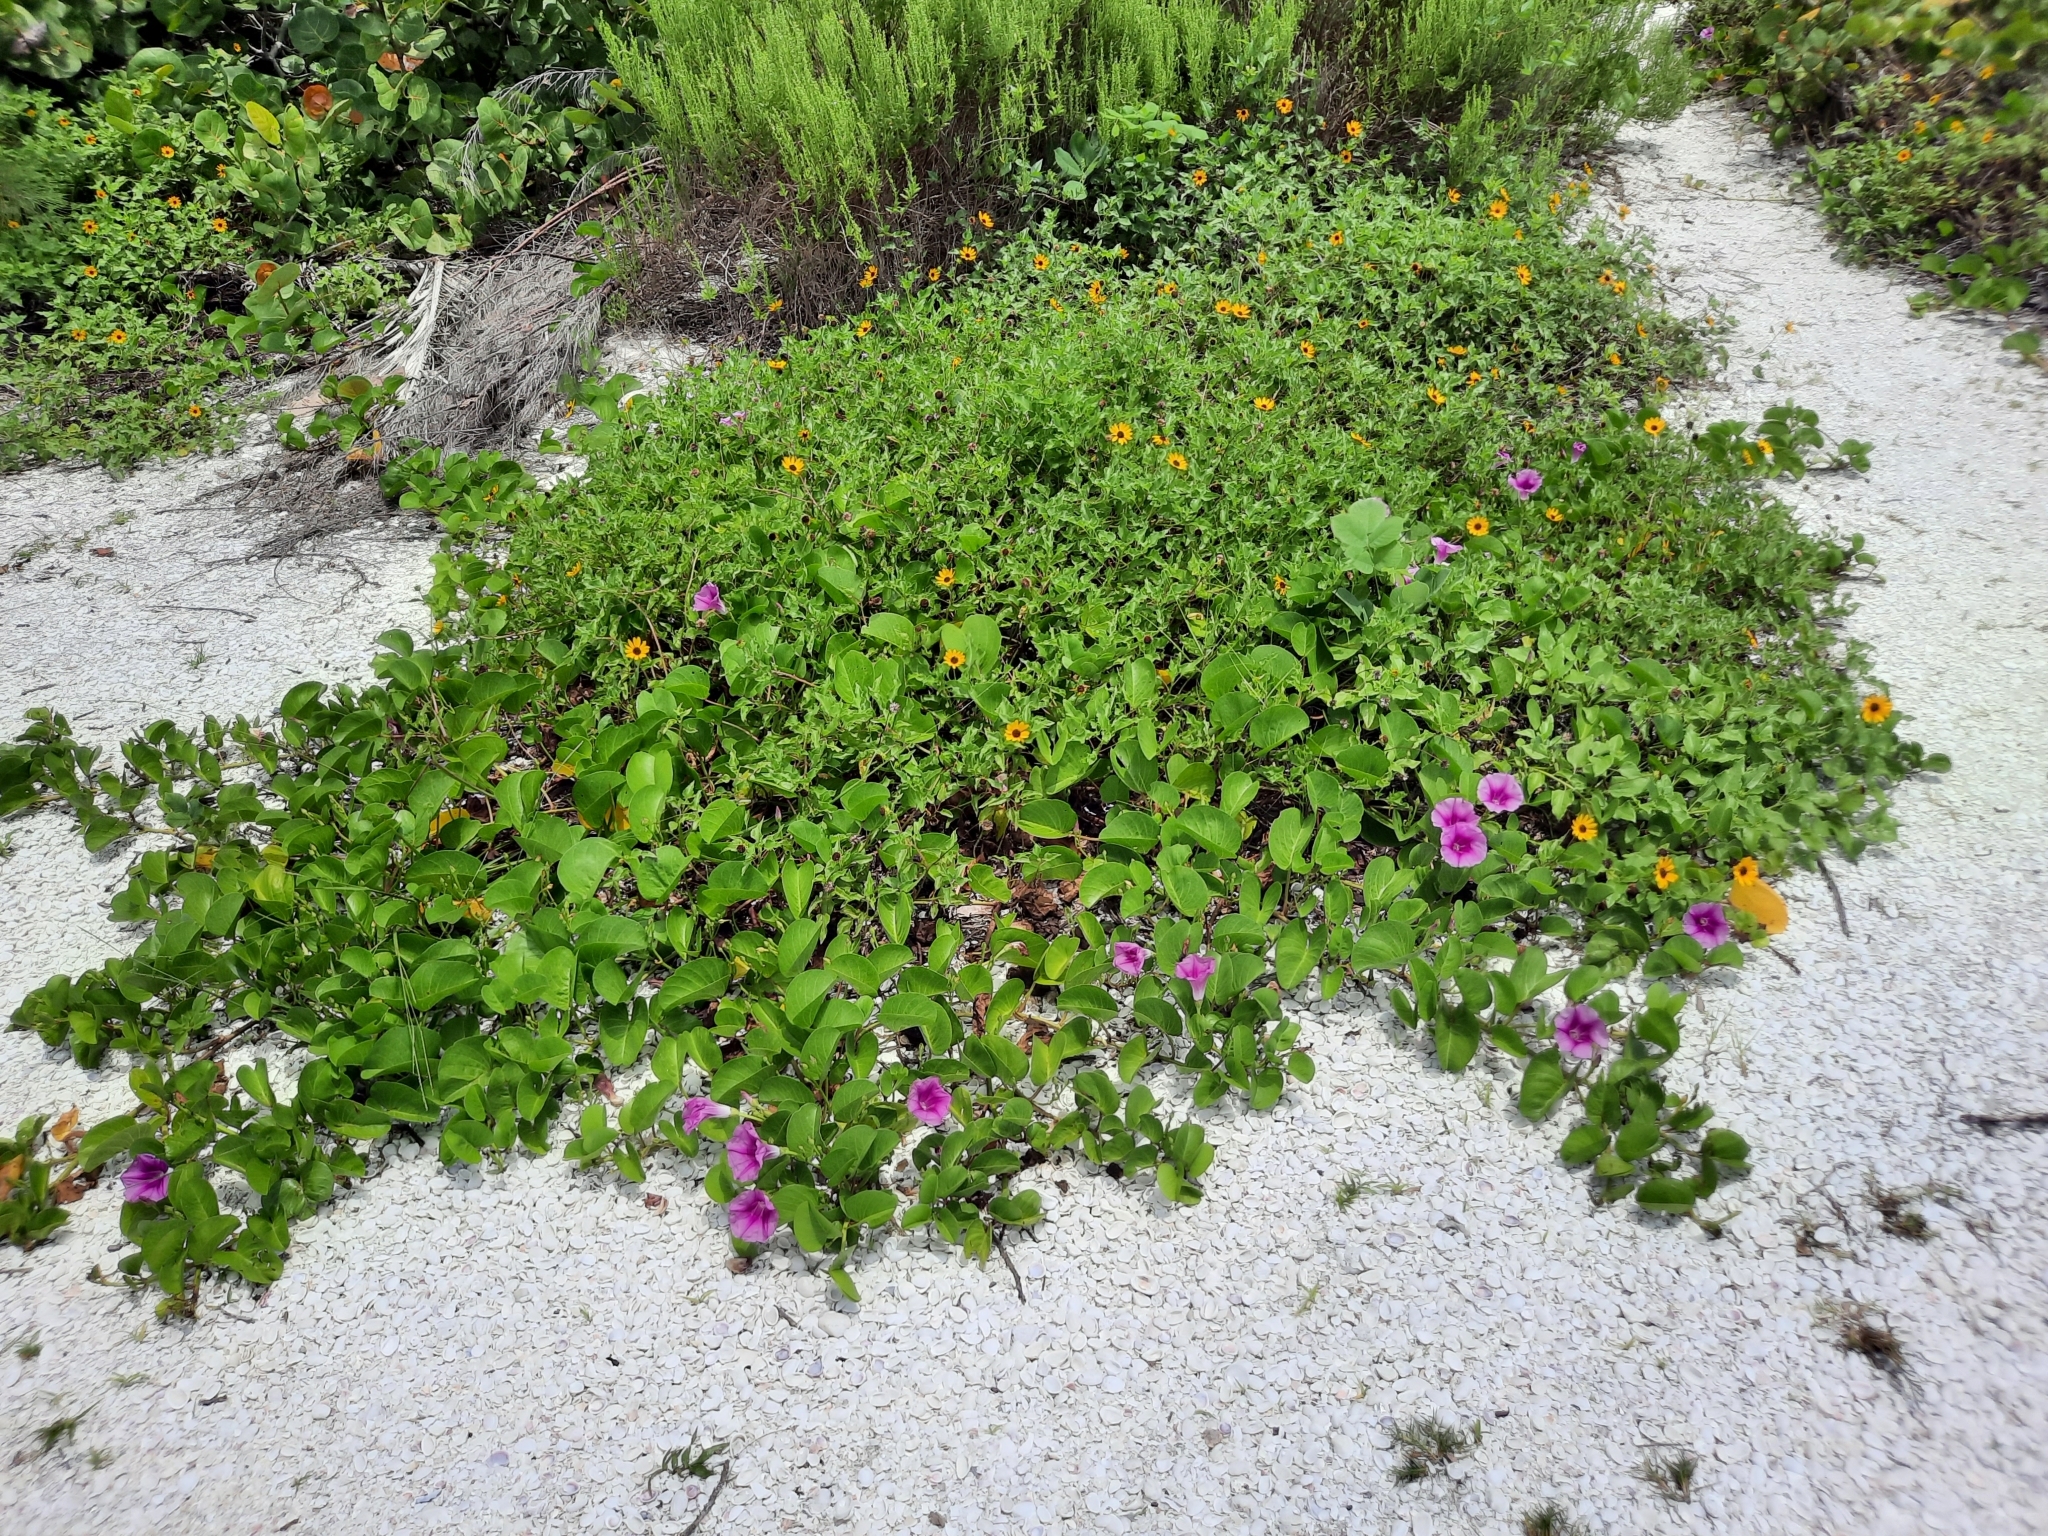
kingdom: Plantae
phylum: Tracheophyta
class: Magnoliopsida
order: Solanales
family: Convolvulaceae
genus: Ipomoea
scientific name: Ipomoea pes-caprae
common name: Beach morning glory
